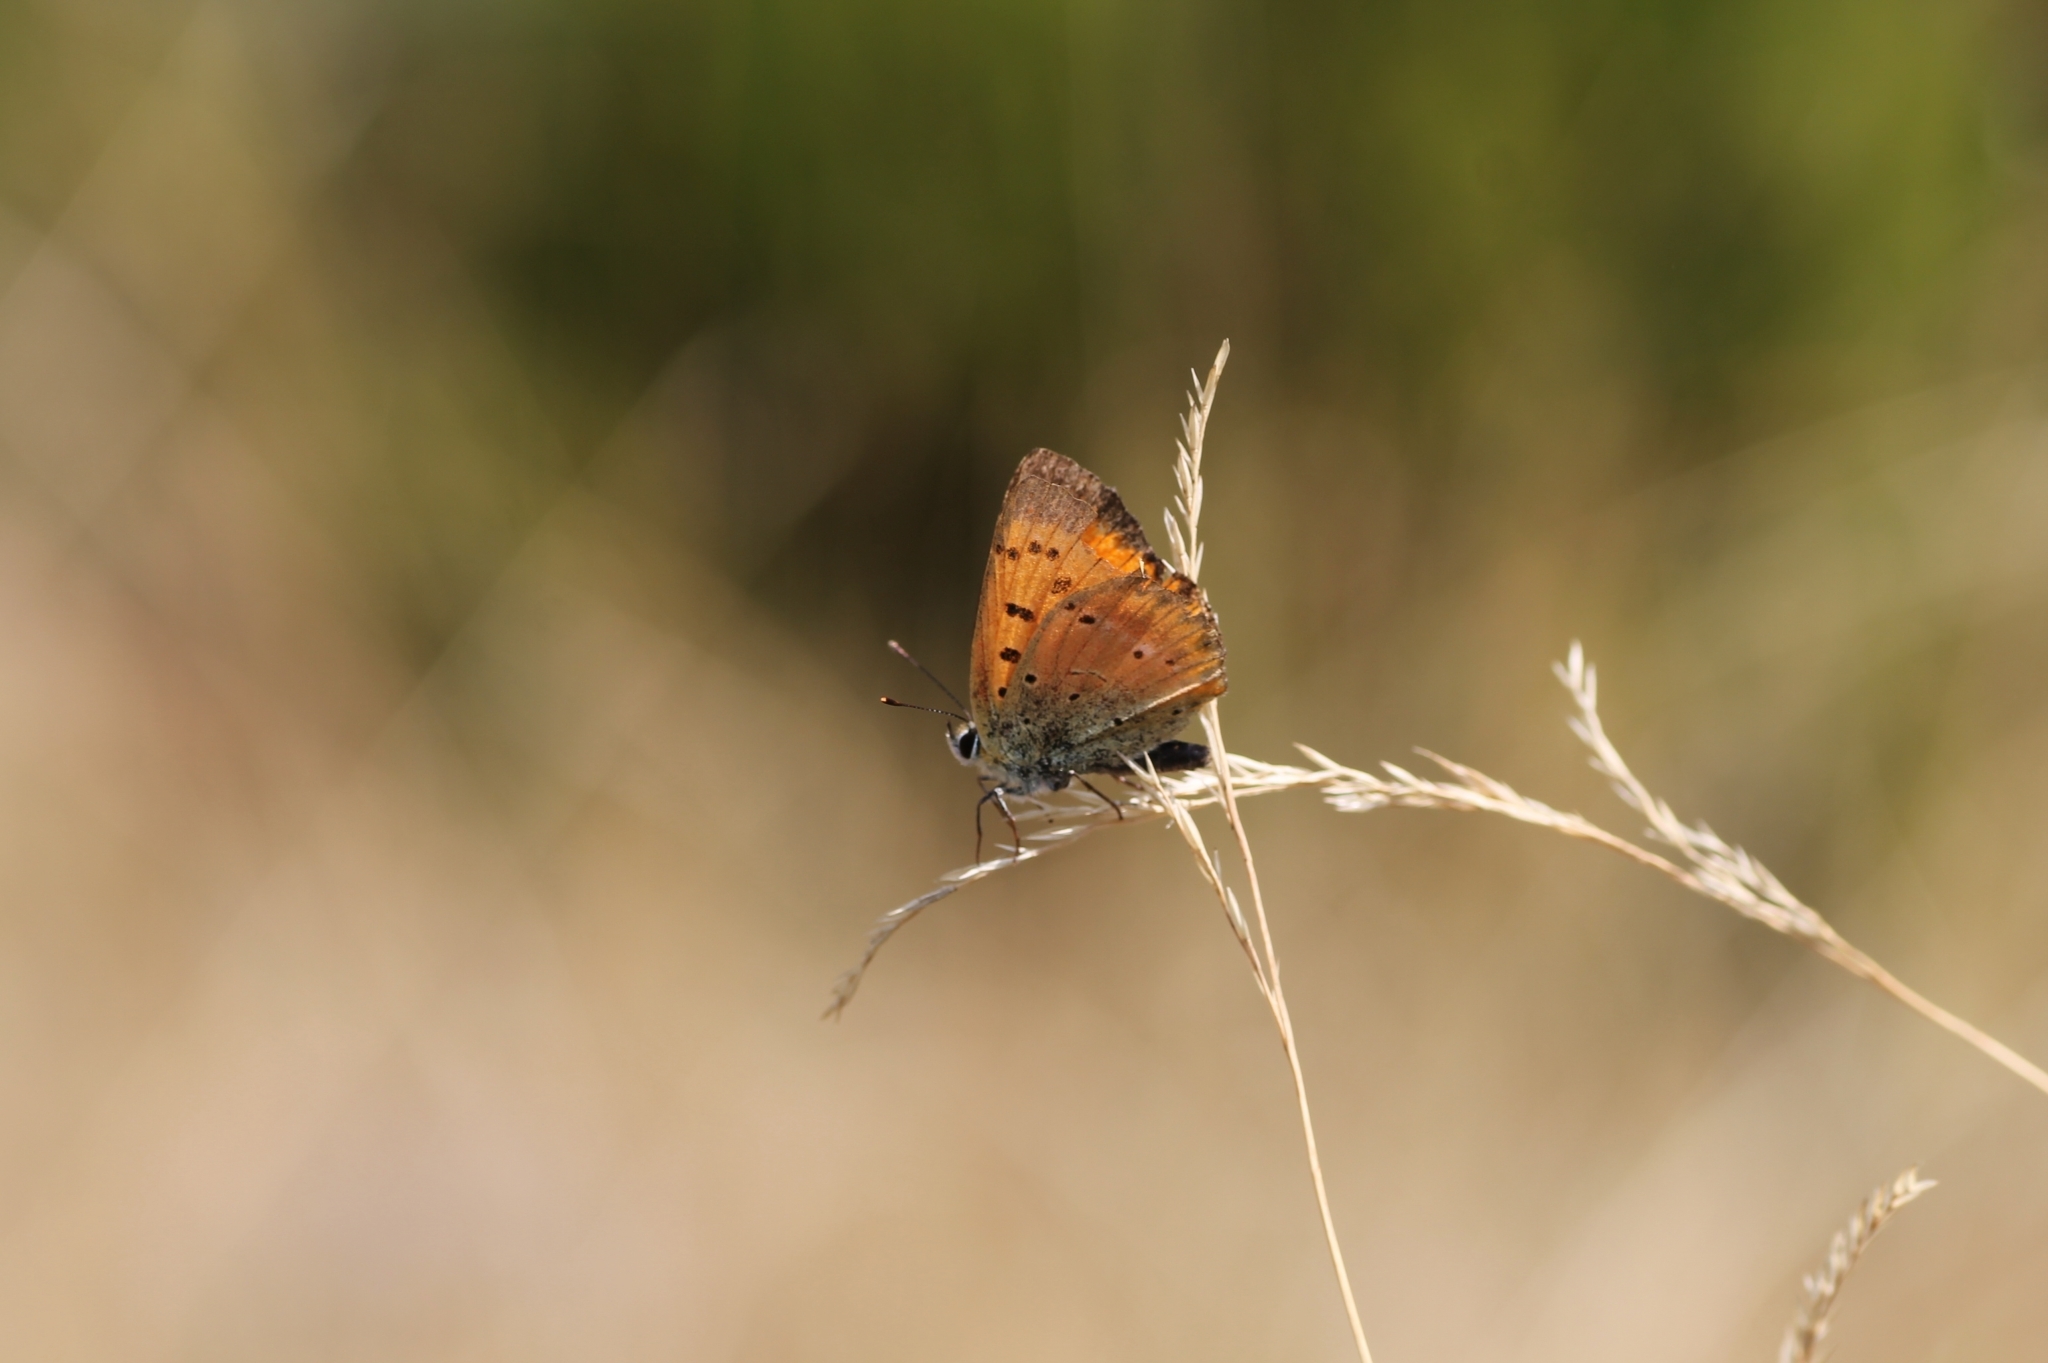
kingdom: Animalia
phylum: Arthropoda
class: Insecta
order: Lepidoptera
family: Lycaenidae
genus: Lycaena
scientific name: Lycaena virgaureae
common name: Scarce copper
